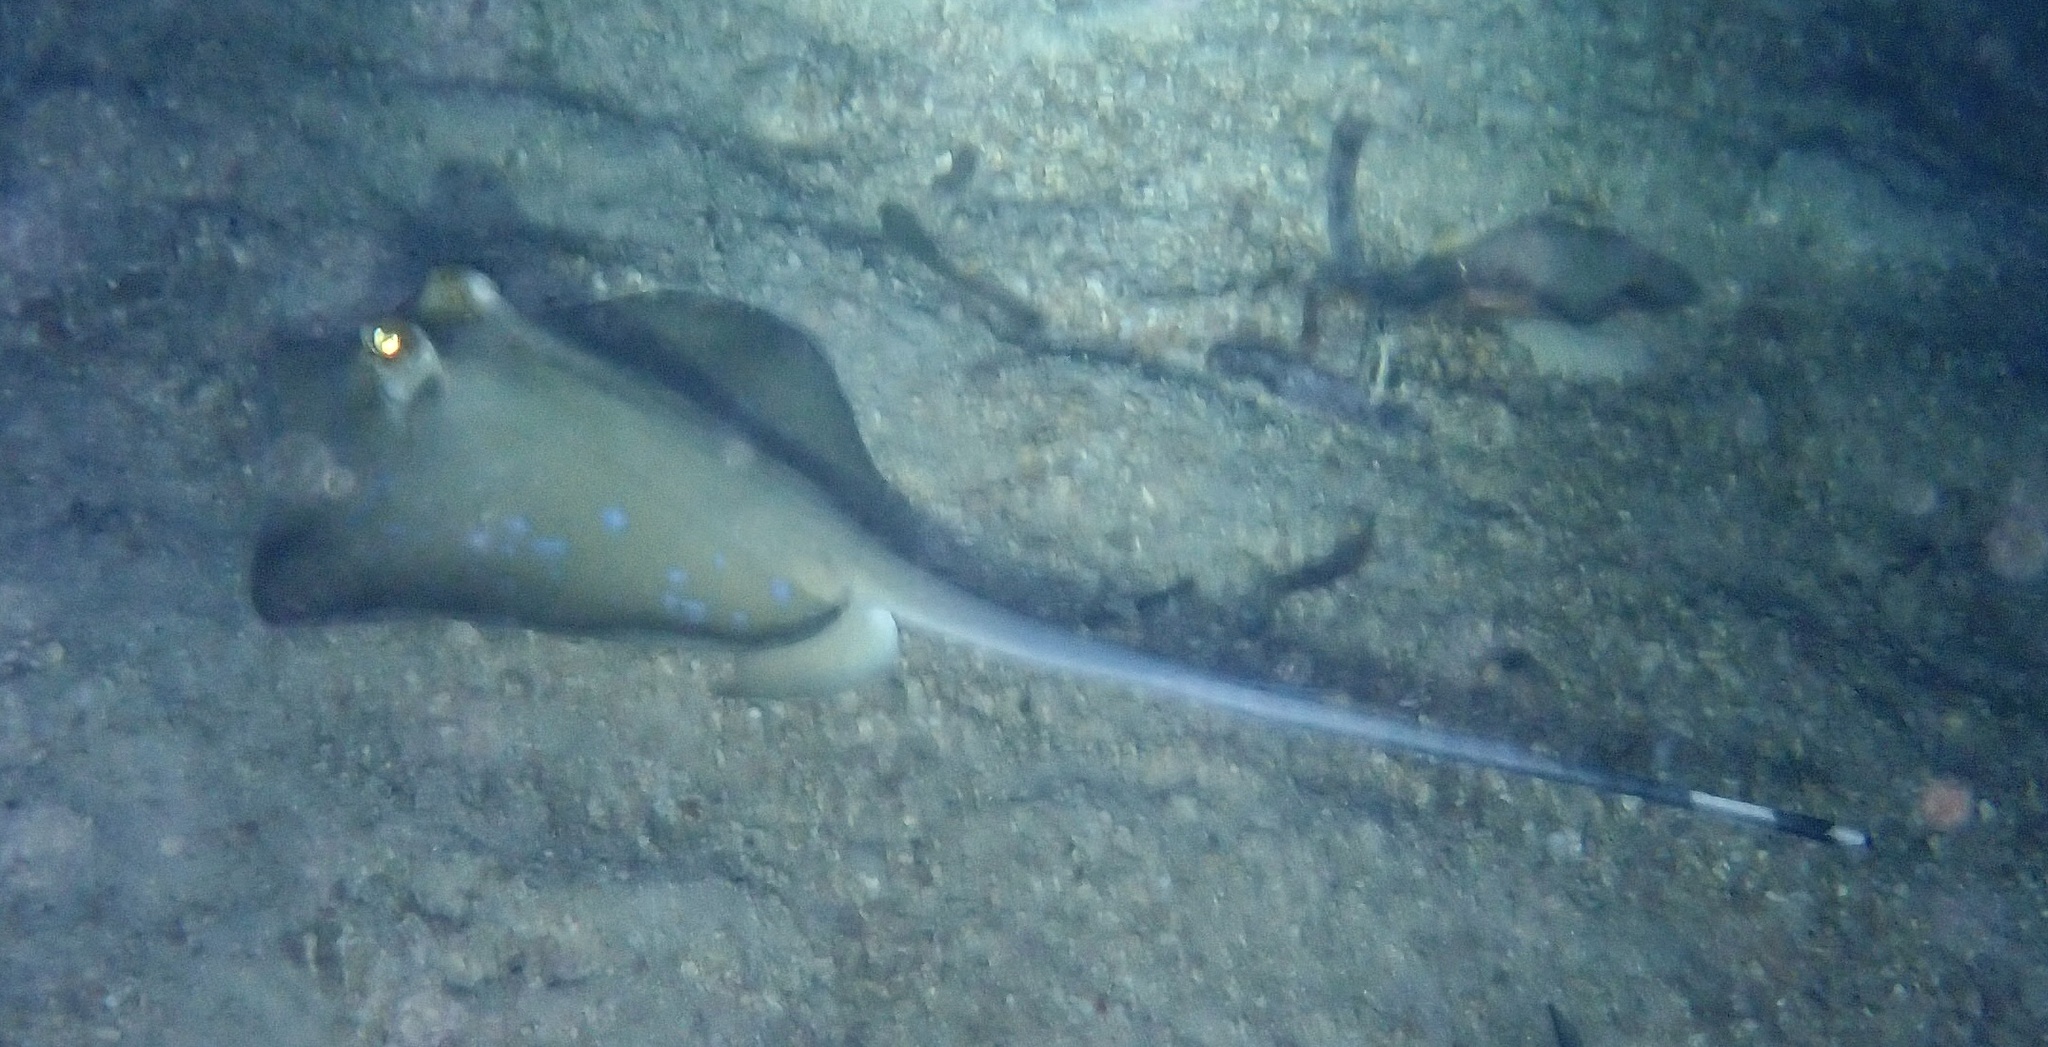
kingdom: Animalia
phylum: Chordata
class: Elasmobranchii
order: Myliobatiformes
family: Dasyatidae
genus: Neotrygon
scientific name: Neotrygon orientale
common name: Oriental bluespotted maskray
